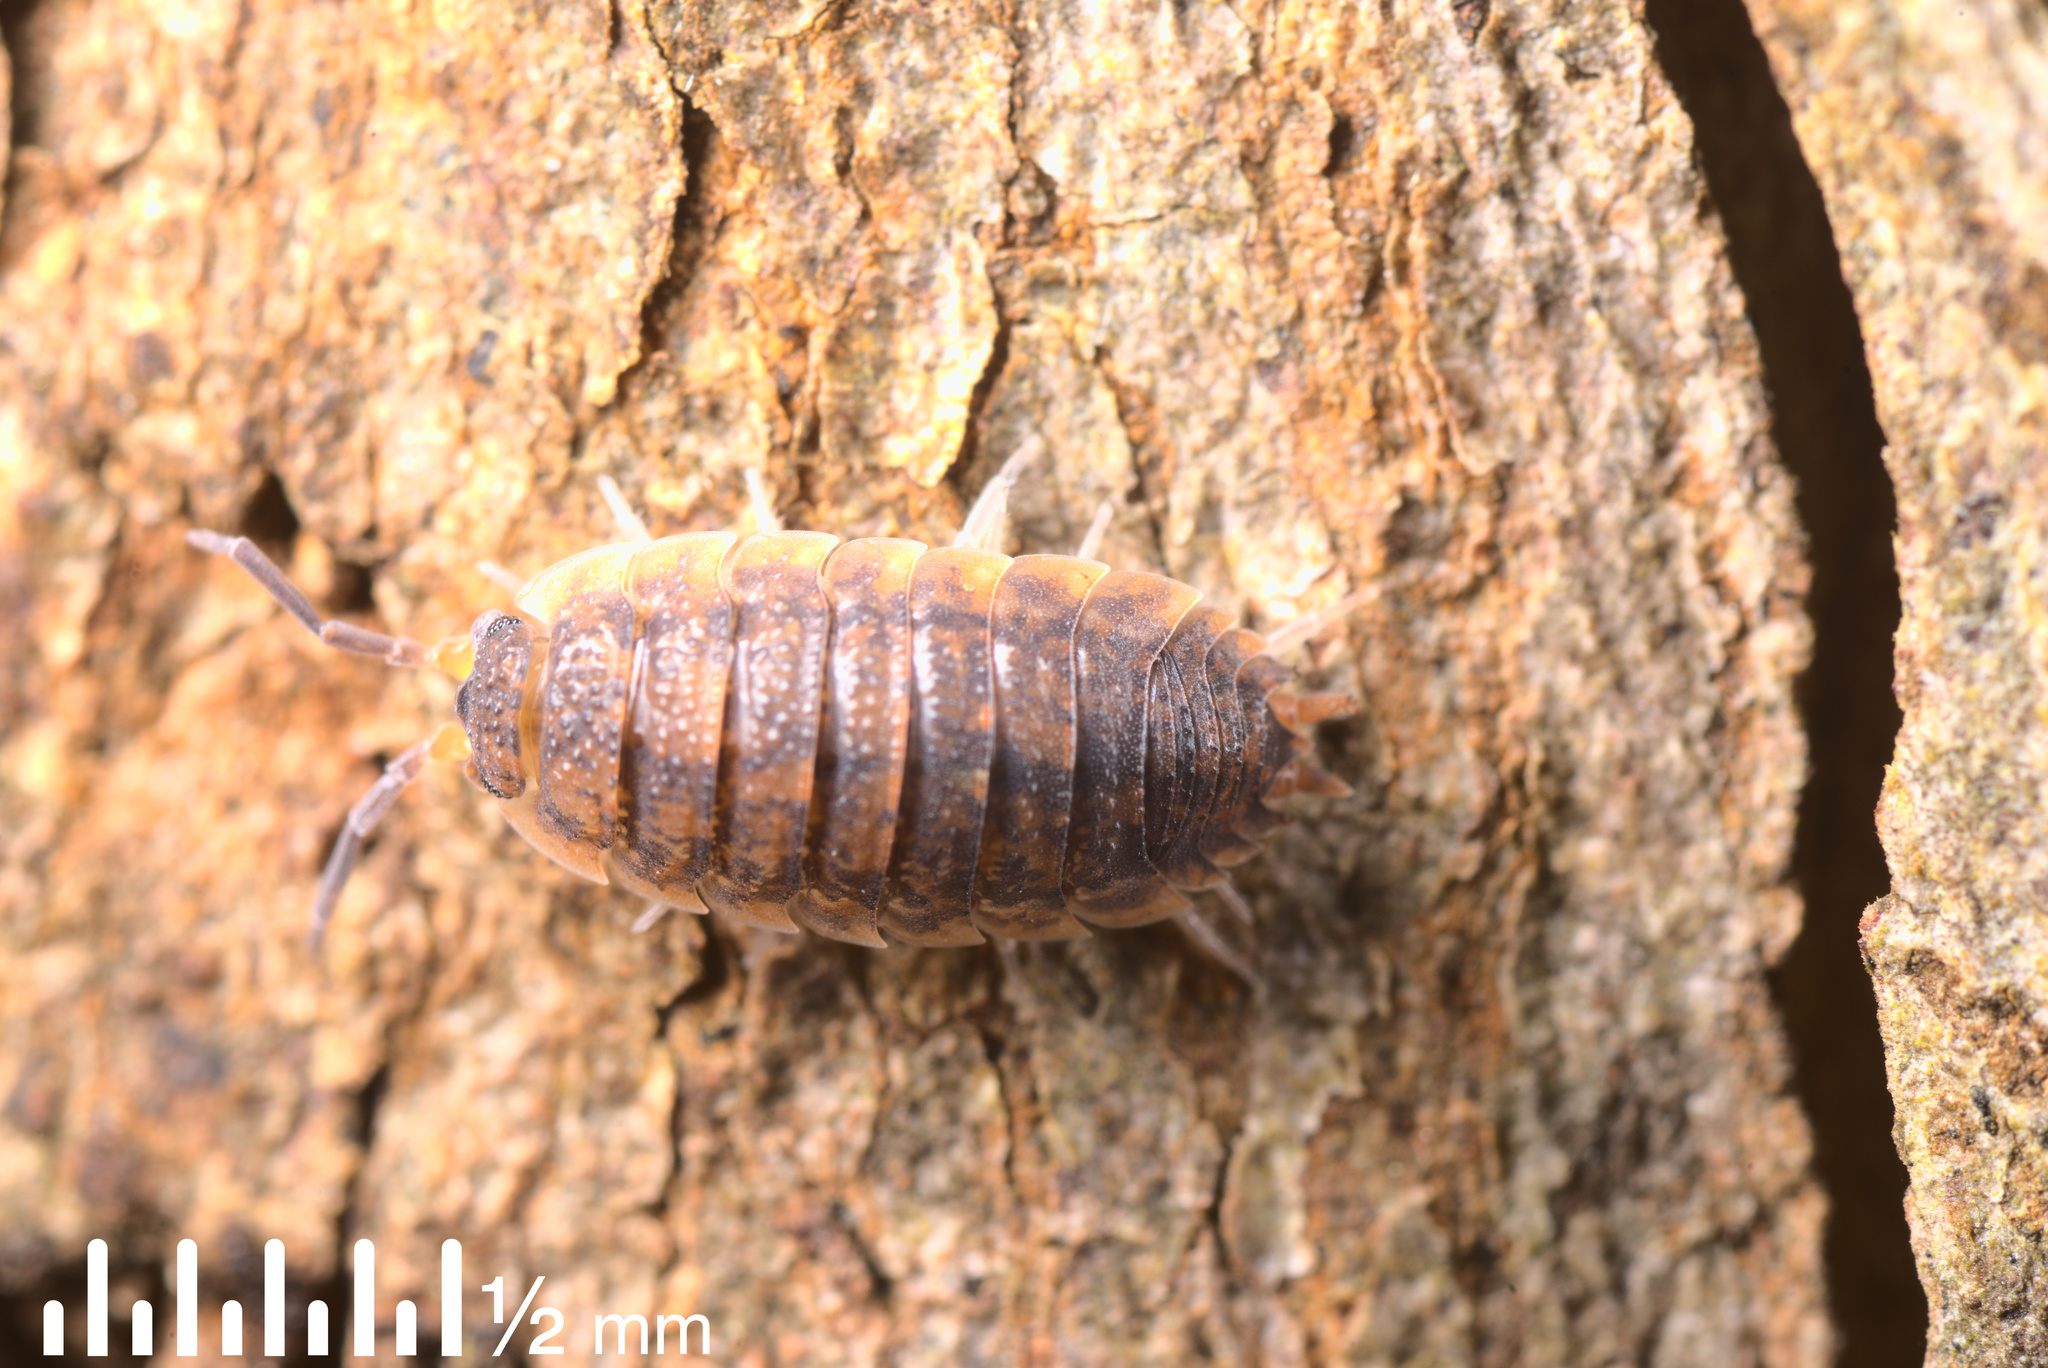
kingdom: Animalia
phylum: Arthropoda
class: Malacostraca
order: Isopoda
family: Porcellionidae
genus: Porcellio
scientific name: Porcellio scaber
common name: Common rough woodlouse
